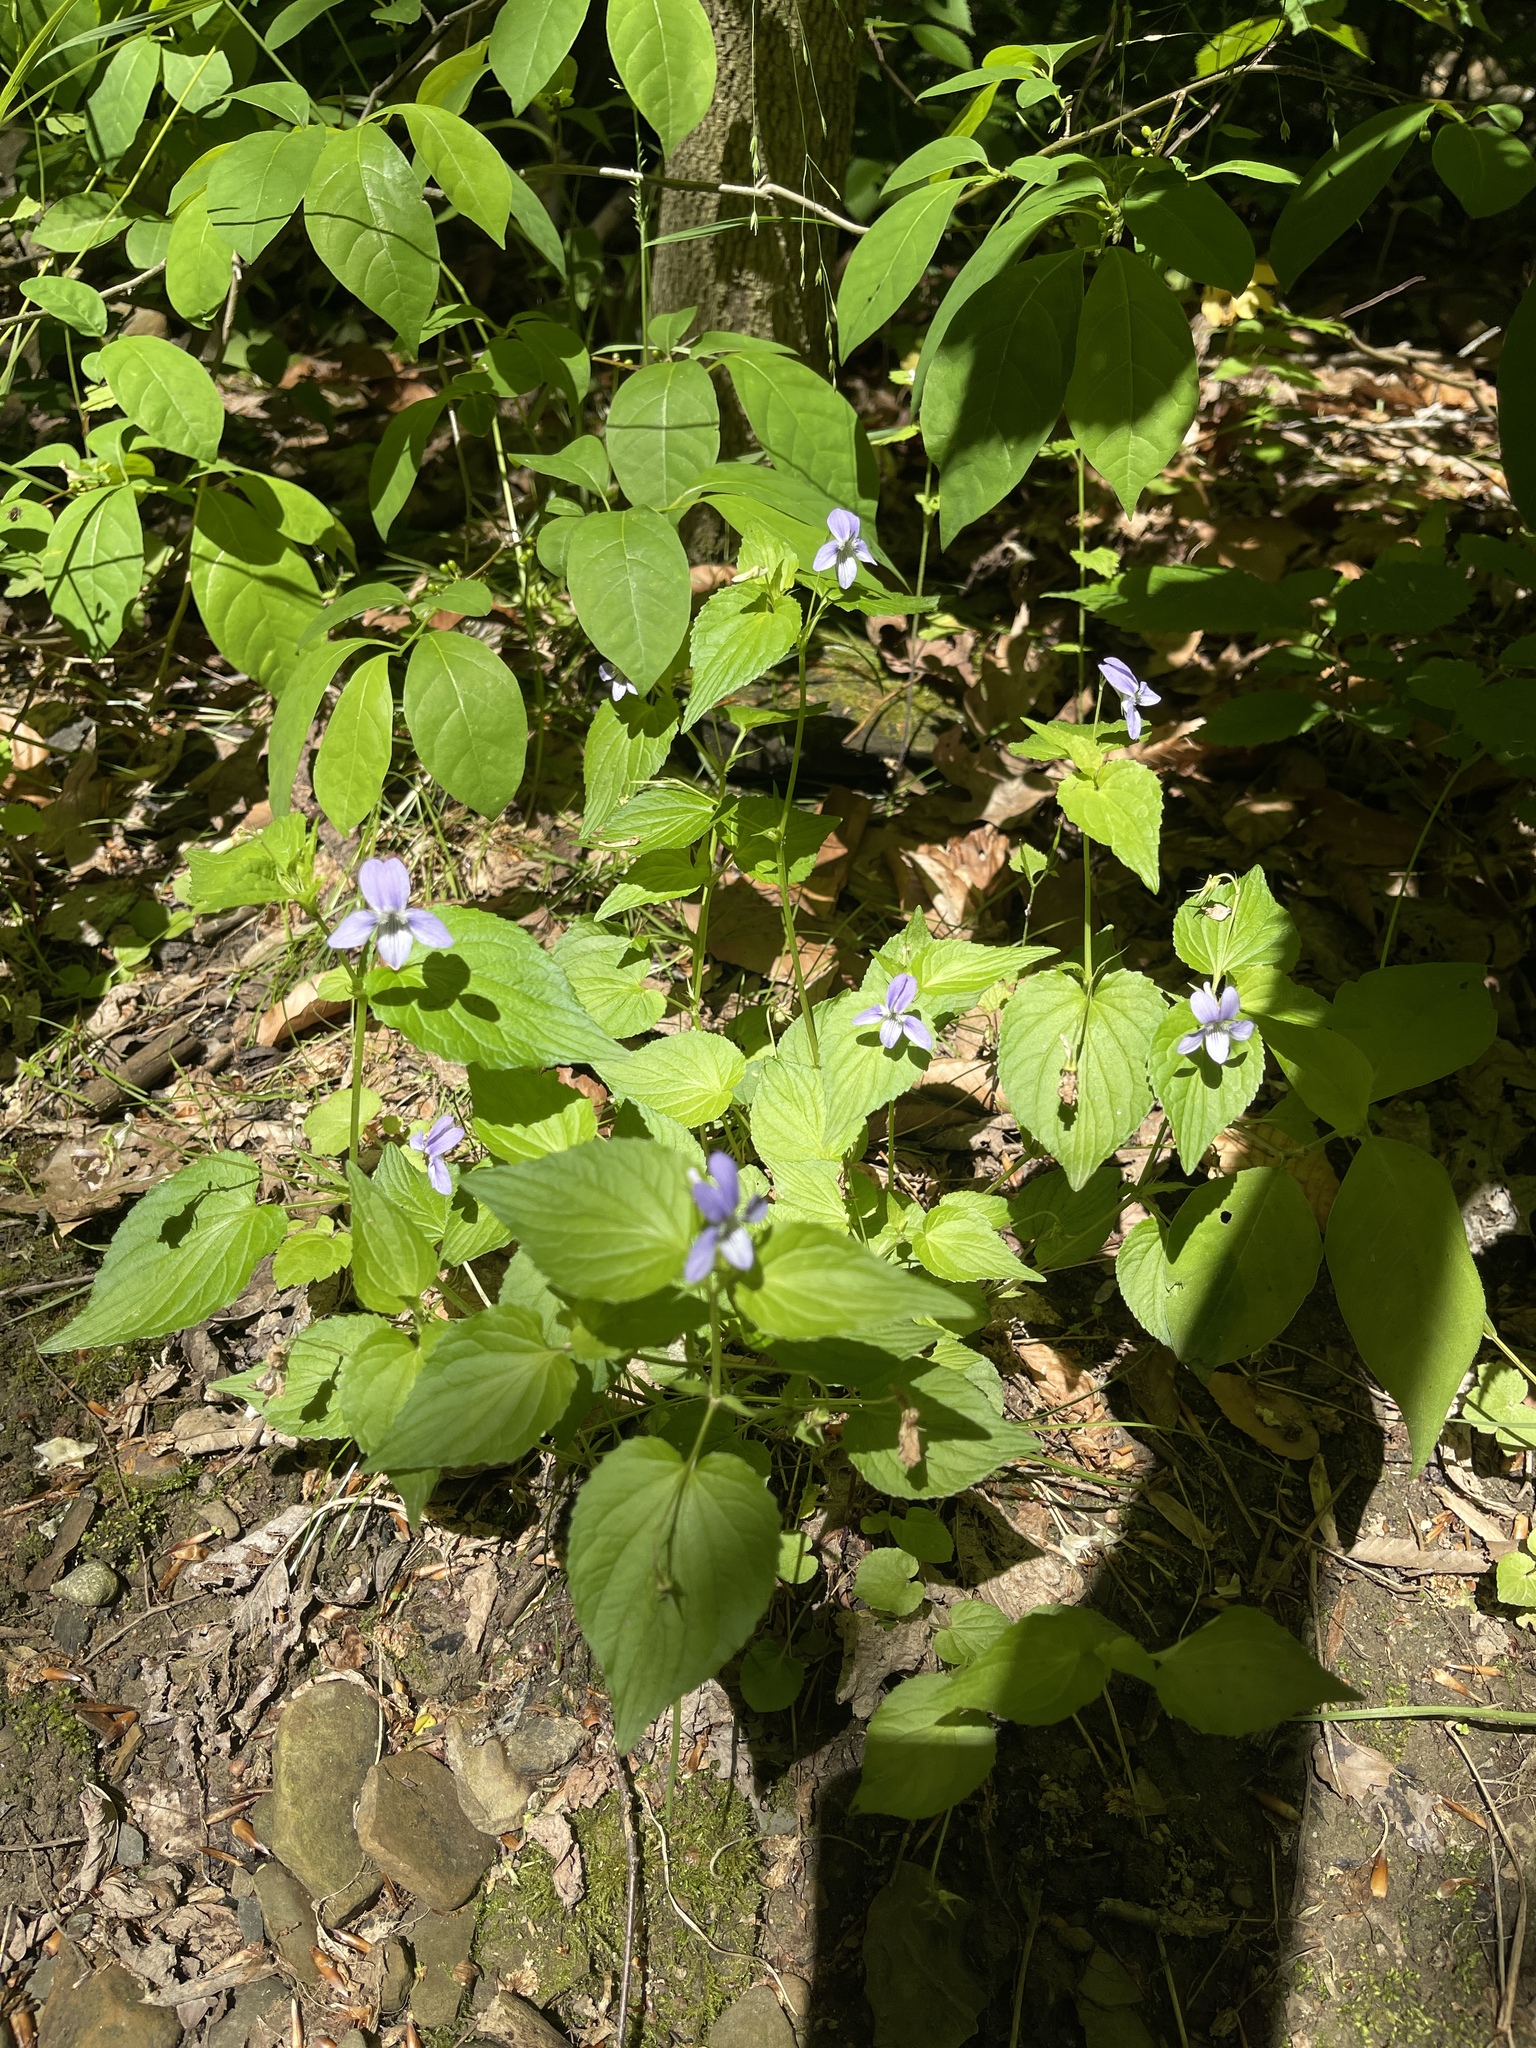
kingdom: Plantae
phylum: Tracheophyta
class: Magnoliopsida
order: Malpighiales
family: Violaceae
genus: Viola
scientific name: Viola labradorica
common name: Labrador violet
